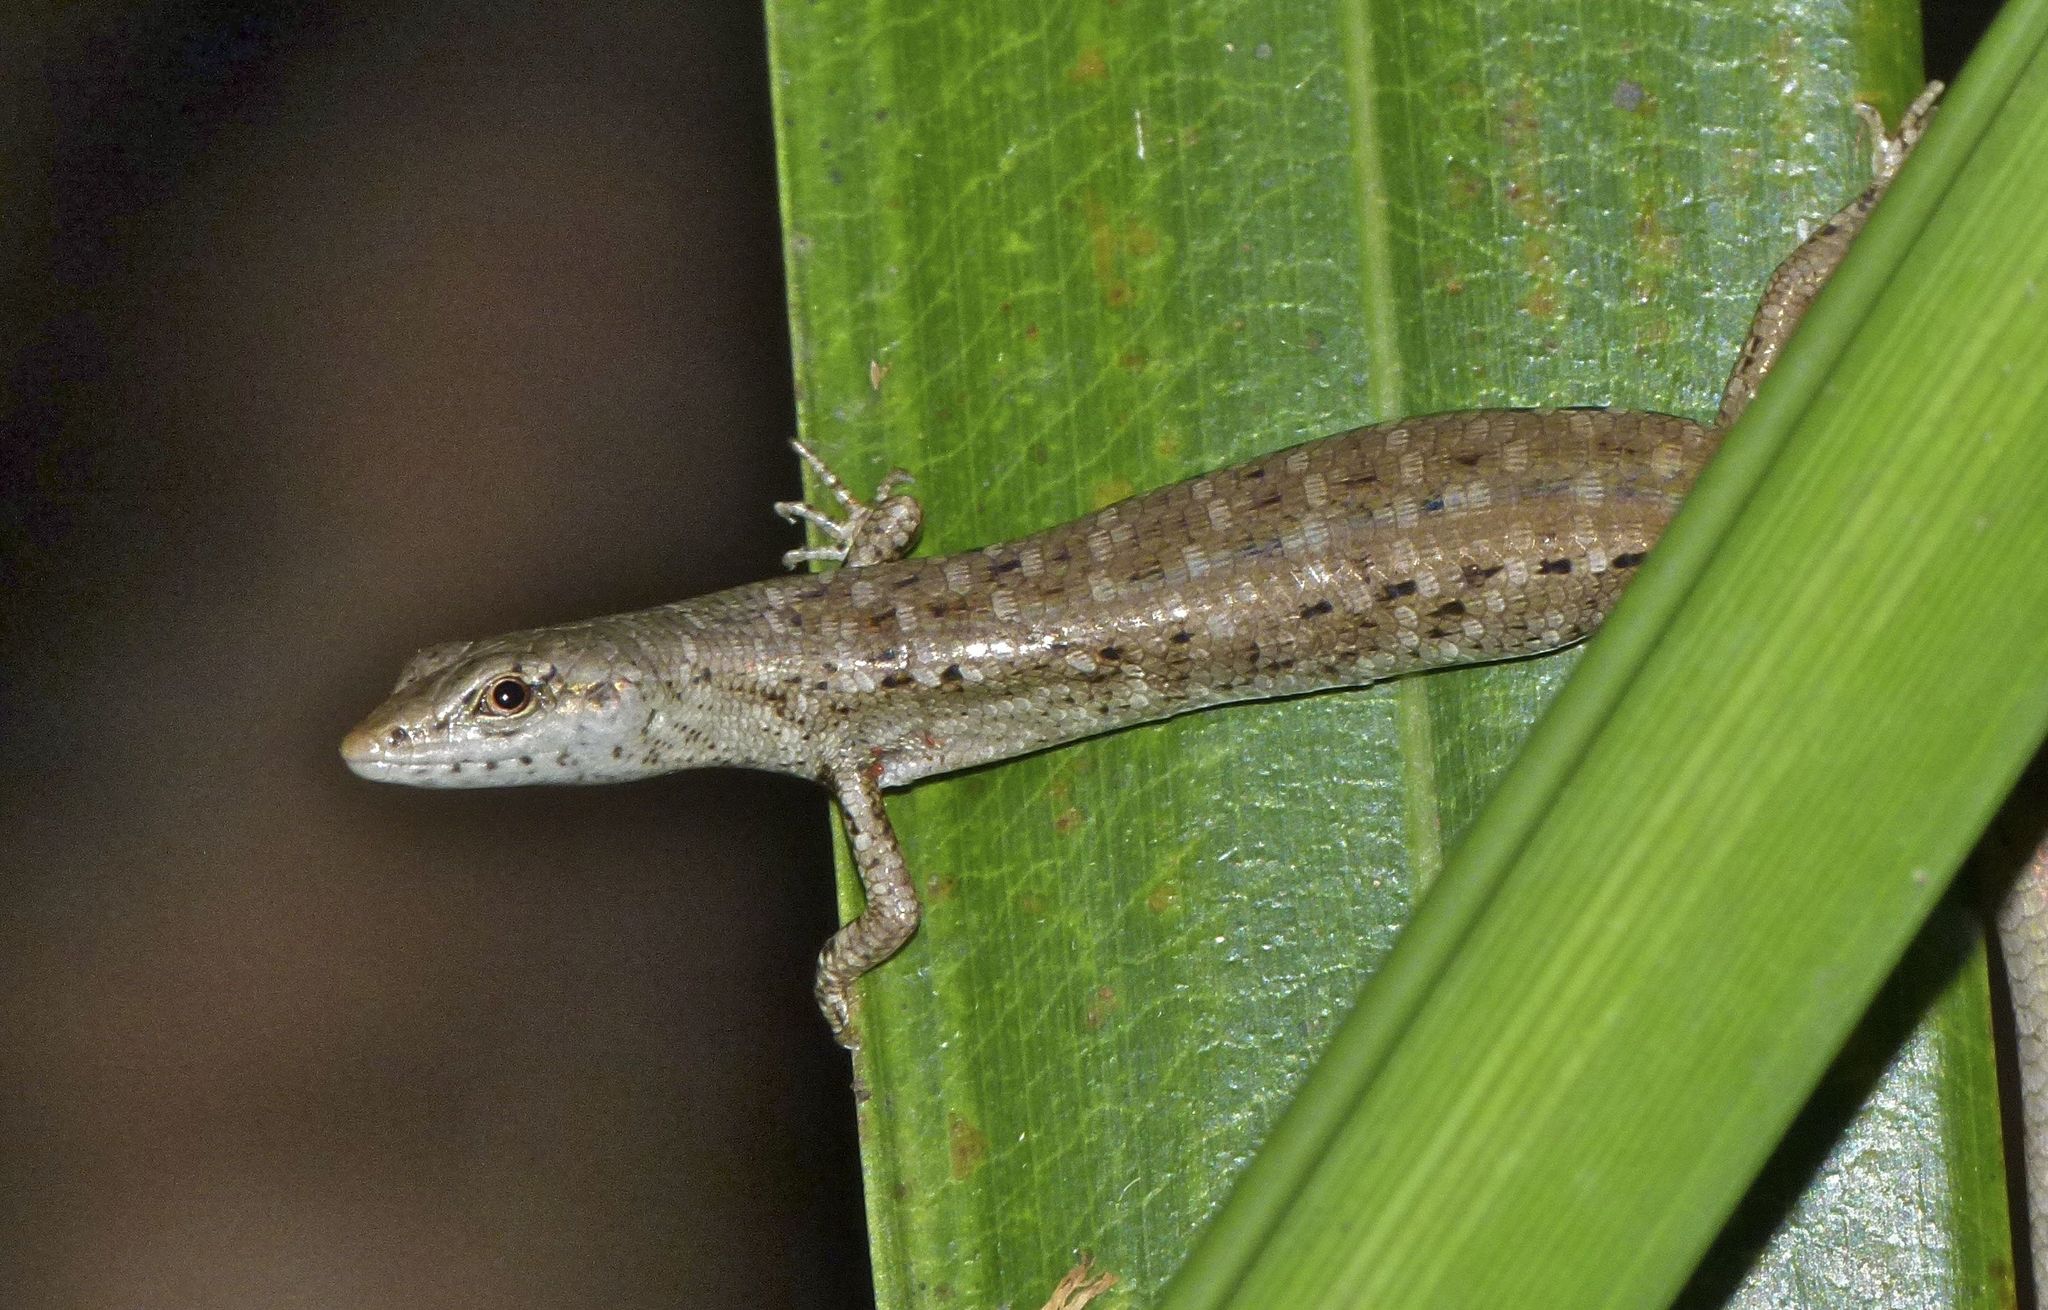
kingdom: Animalia
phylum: Chordata
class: Squamata
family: Scincidae
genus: Saproscincus
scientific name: Saproscincus spectabilis
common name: Gully shadeskink
